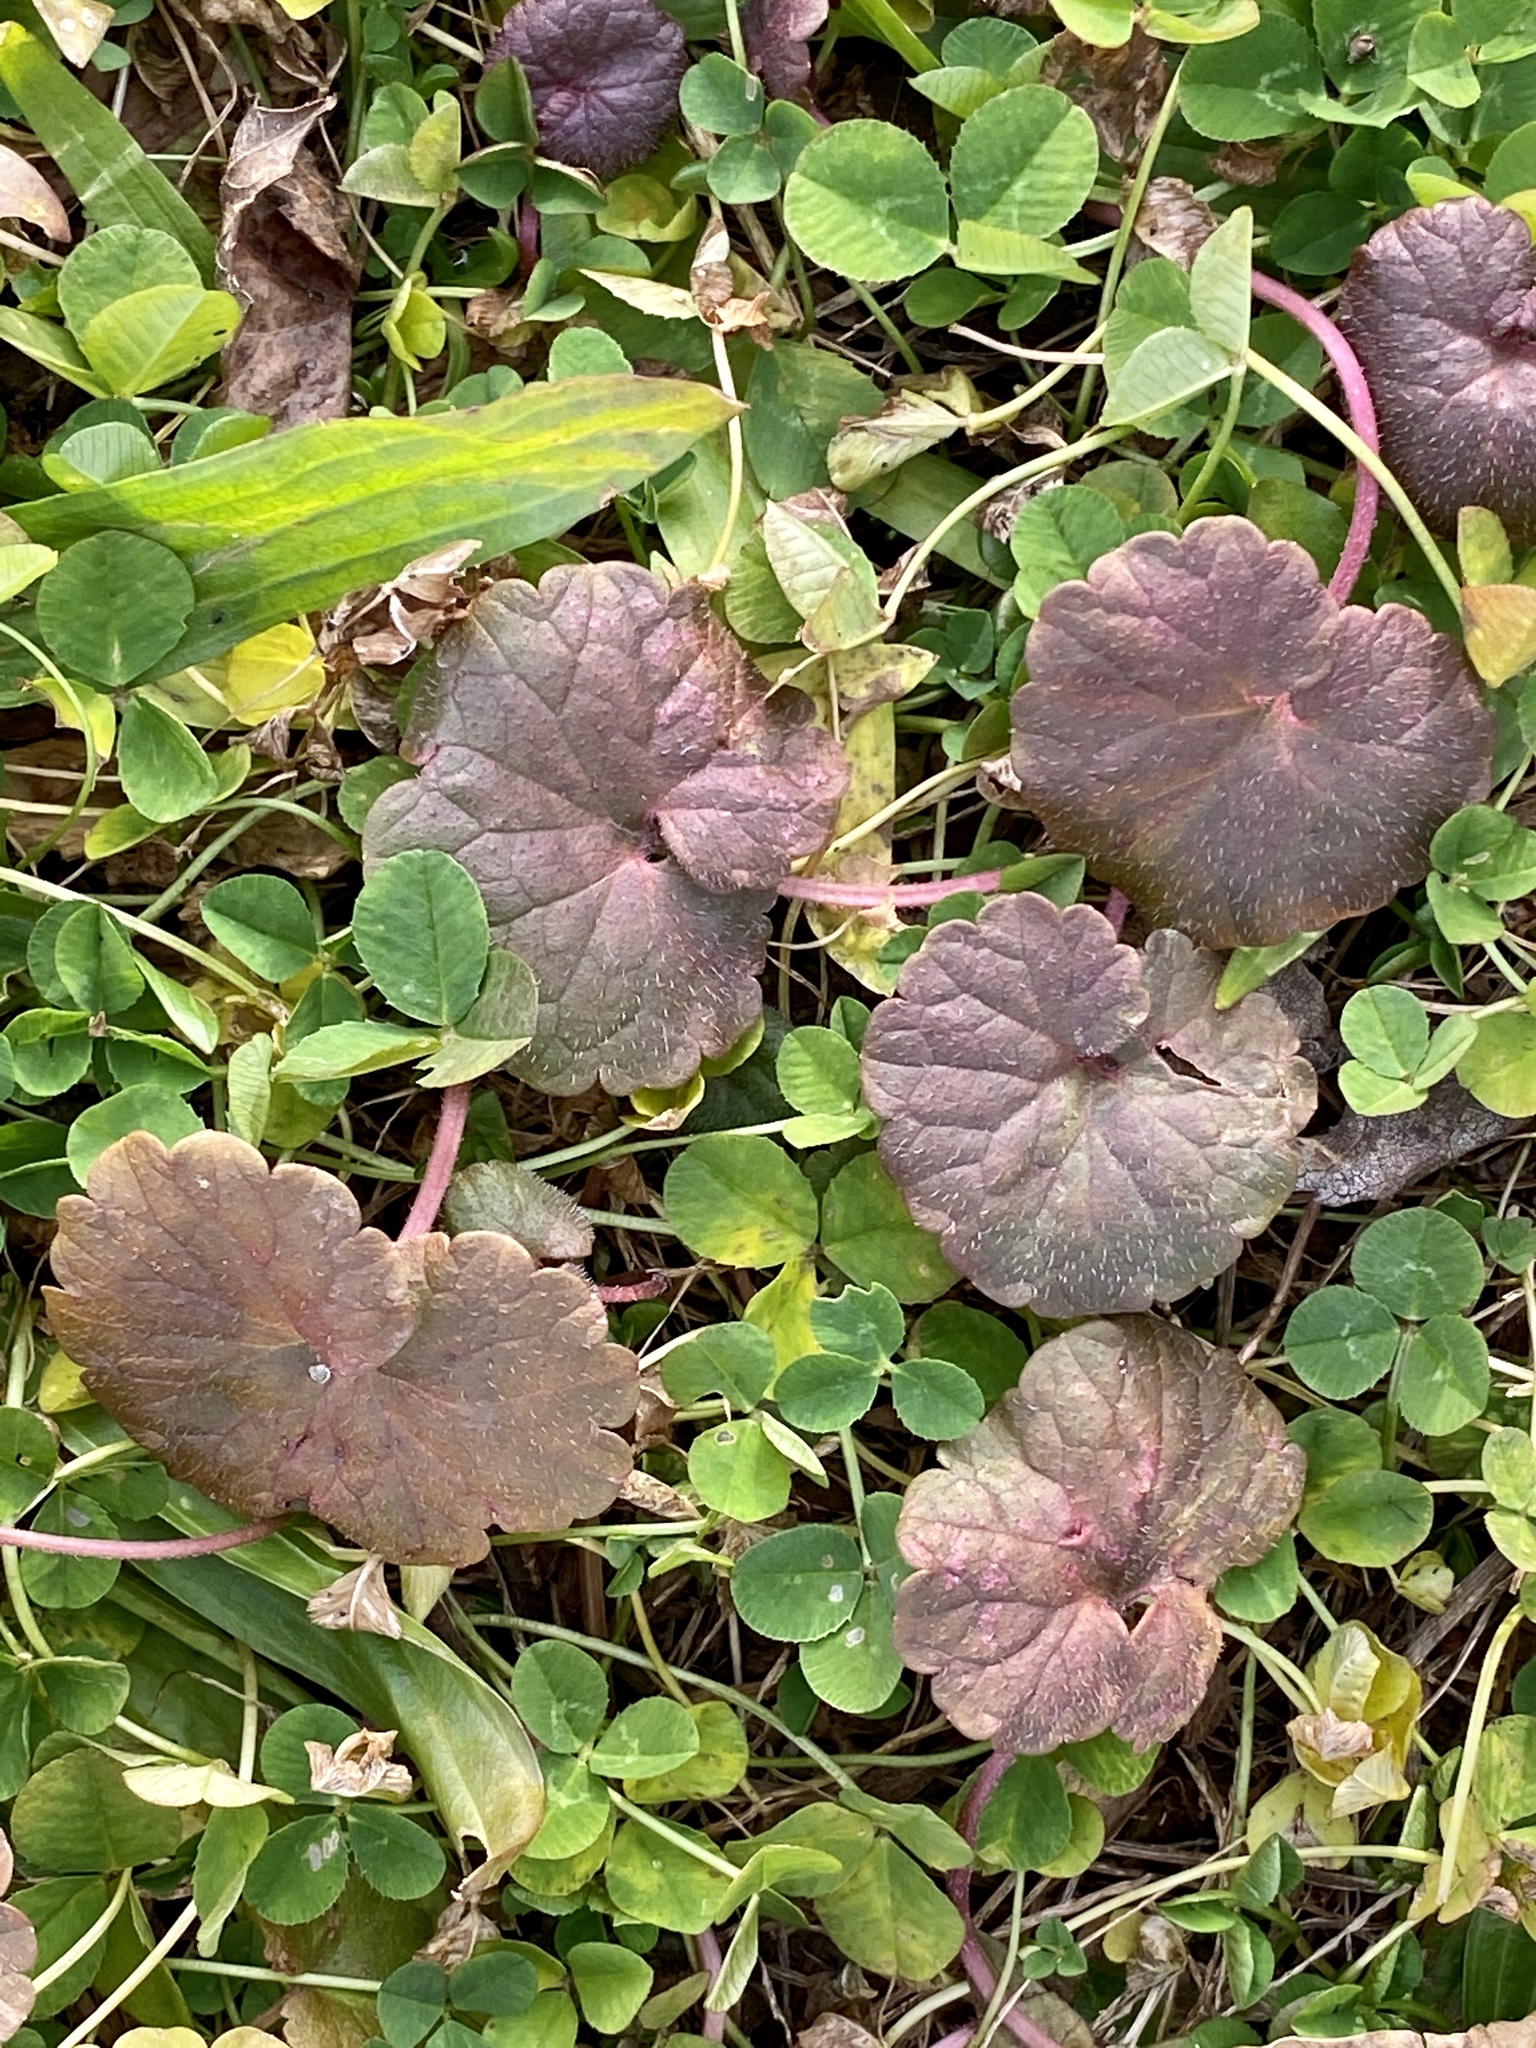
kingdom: Plantae
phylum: Tracheophyta
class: Magnoliopsida
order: Lamiales
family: Lamiaceae
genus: Glechoma
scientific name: Glechoma hederacea
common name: Ground ivy
